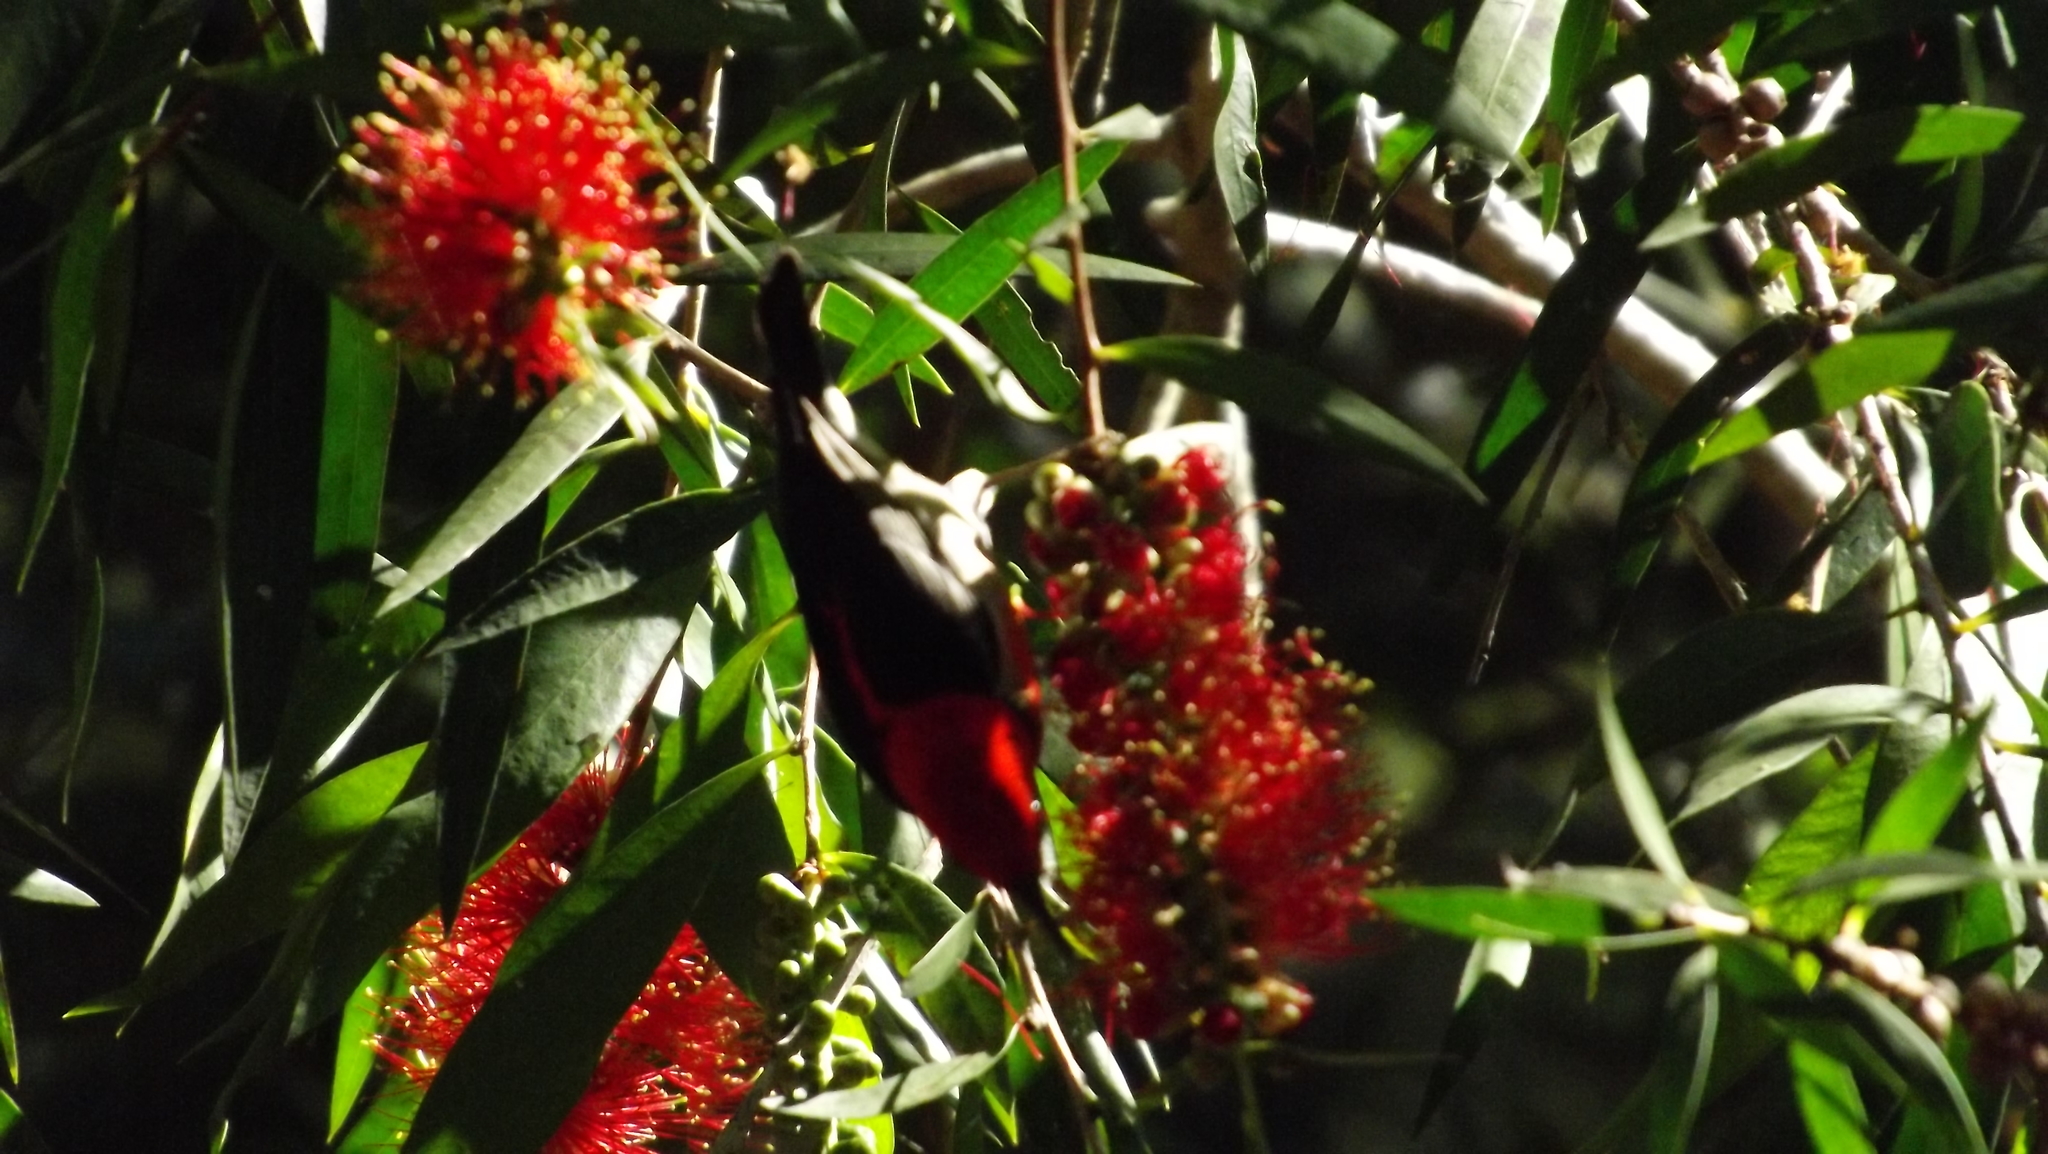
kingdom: Animalia
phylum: Chordata
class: Aves
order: Passeriformes
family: Meliphagidae
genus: Myzomela
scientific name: Myzomela sanguinolenta
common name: Scarlet myzomela
